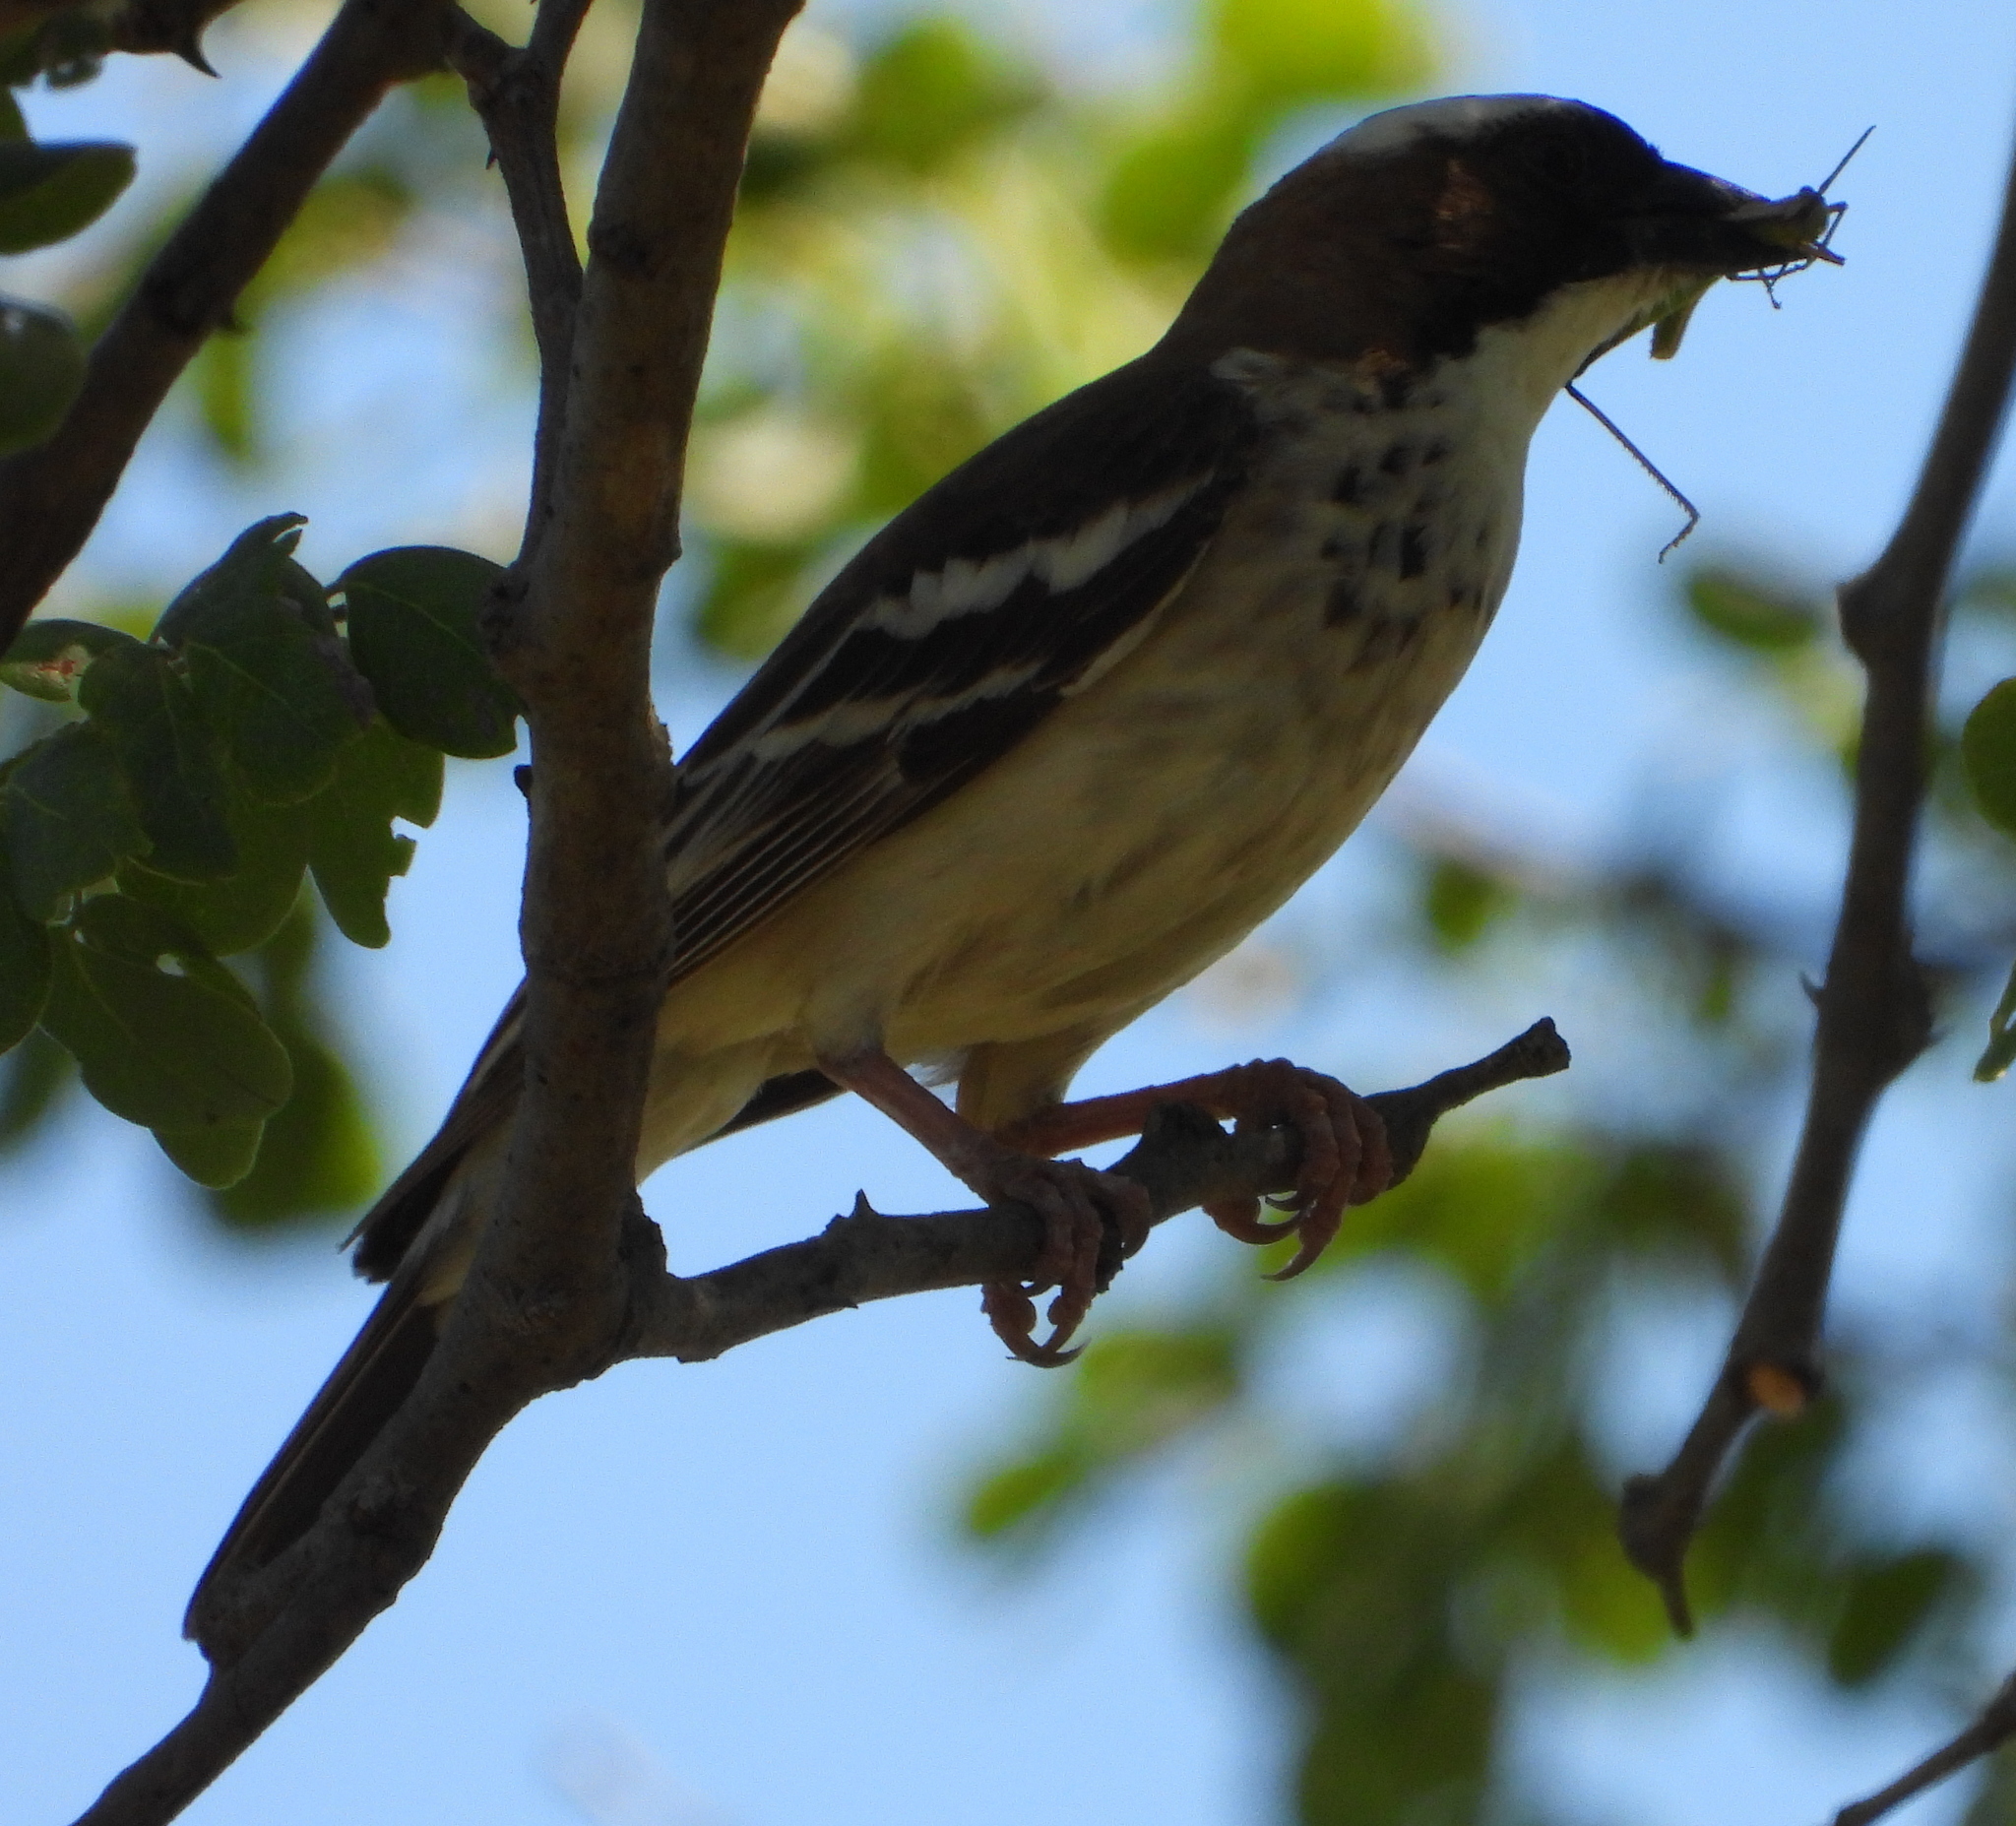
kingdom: Animalia
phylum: Chordata
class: Aves
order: Passeriformes
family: Passeridae
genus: Plocepasser
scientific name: Plocepasser mahali
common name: White-browed sparrow-weaver
